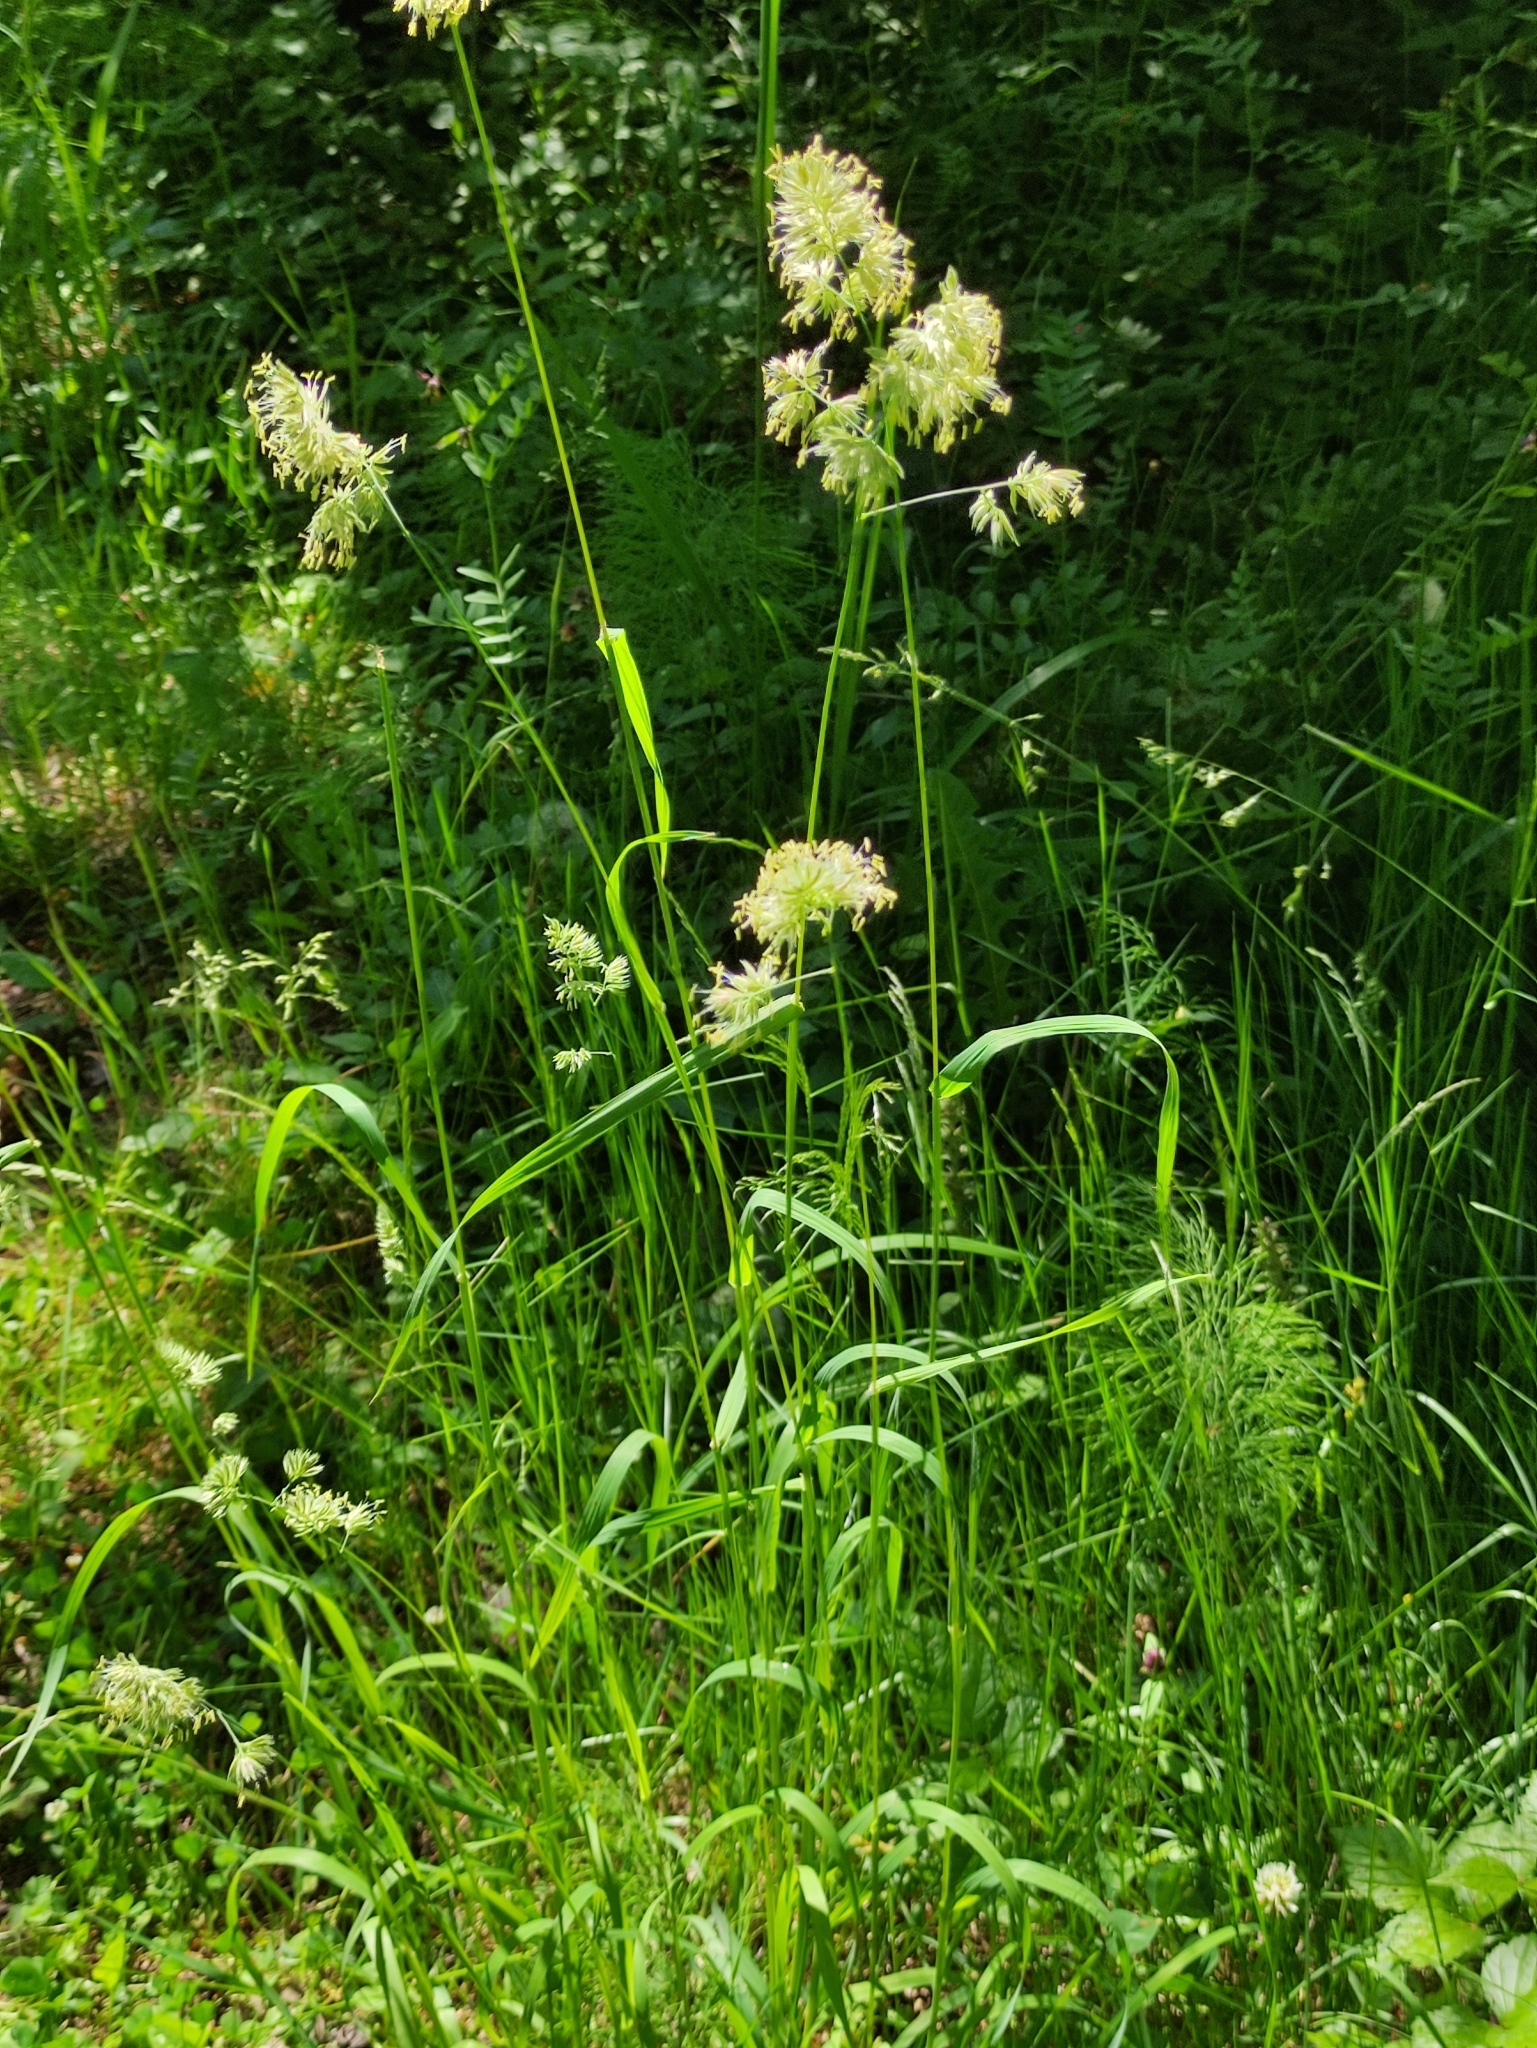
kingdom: Plantae
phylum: Tracheophyta
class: Liliopsida
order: Poales
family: Poaceae
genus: Dactylis
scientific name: Dactylis glomerata
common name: Orchardgrass
